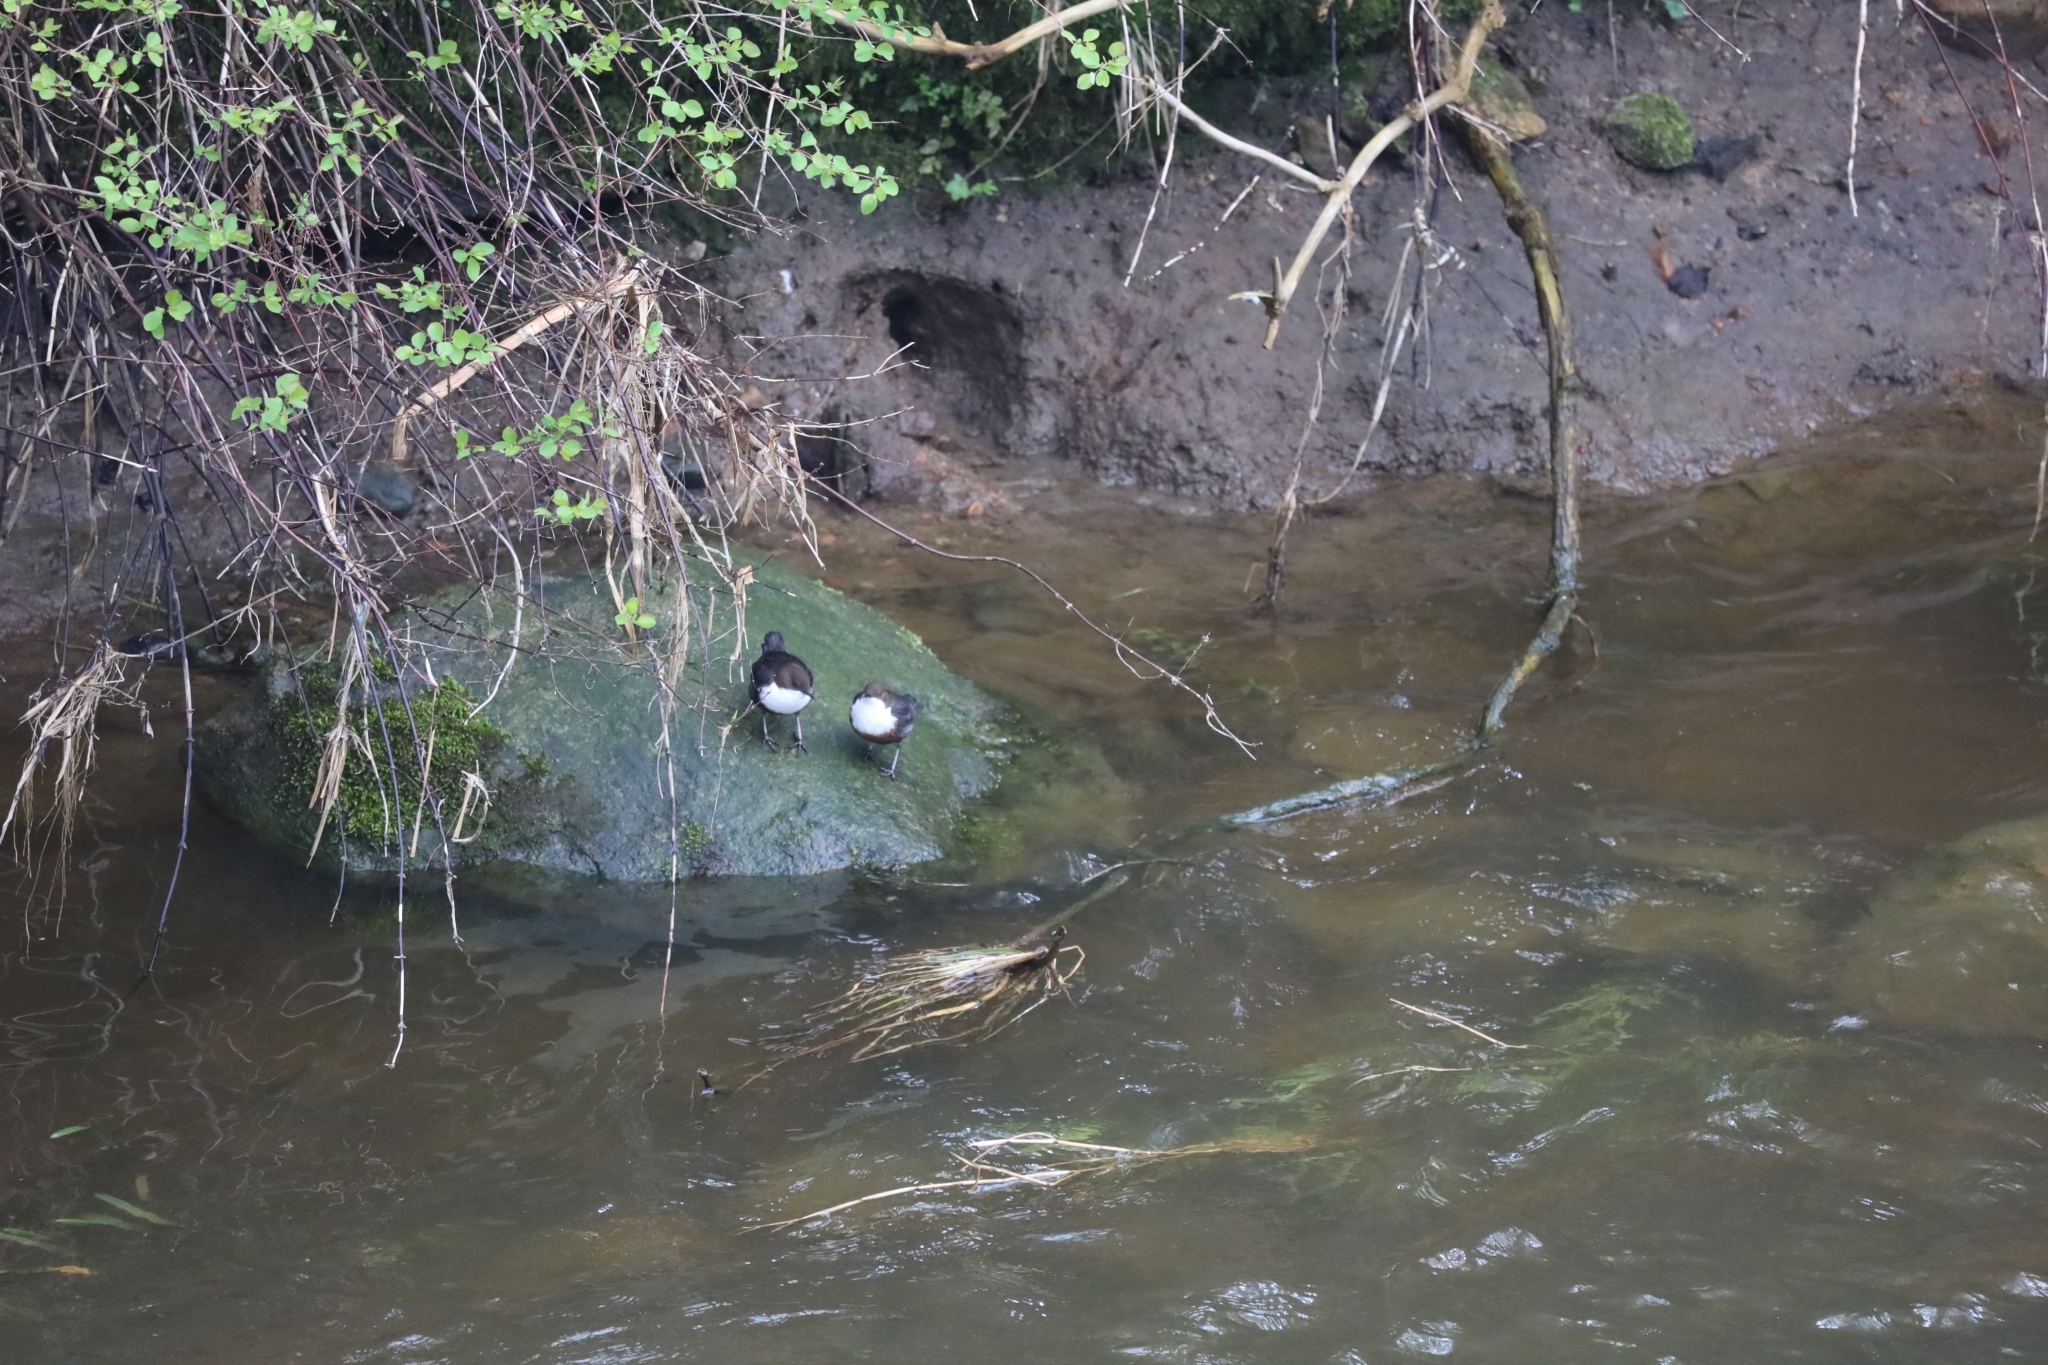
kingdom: Animalia
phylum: Chordata
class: Aves
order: Passeriformes
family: Cinclidae
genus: Cinclus
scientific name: Cinclus cinclus
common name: White-throated dipper
